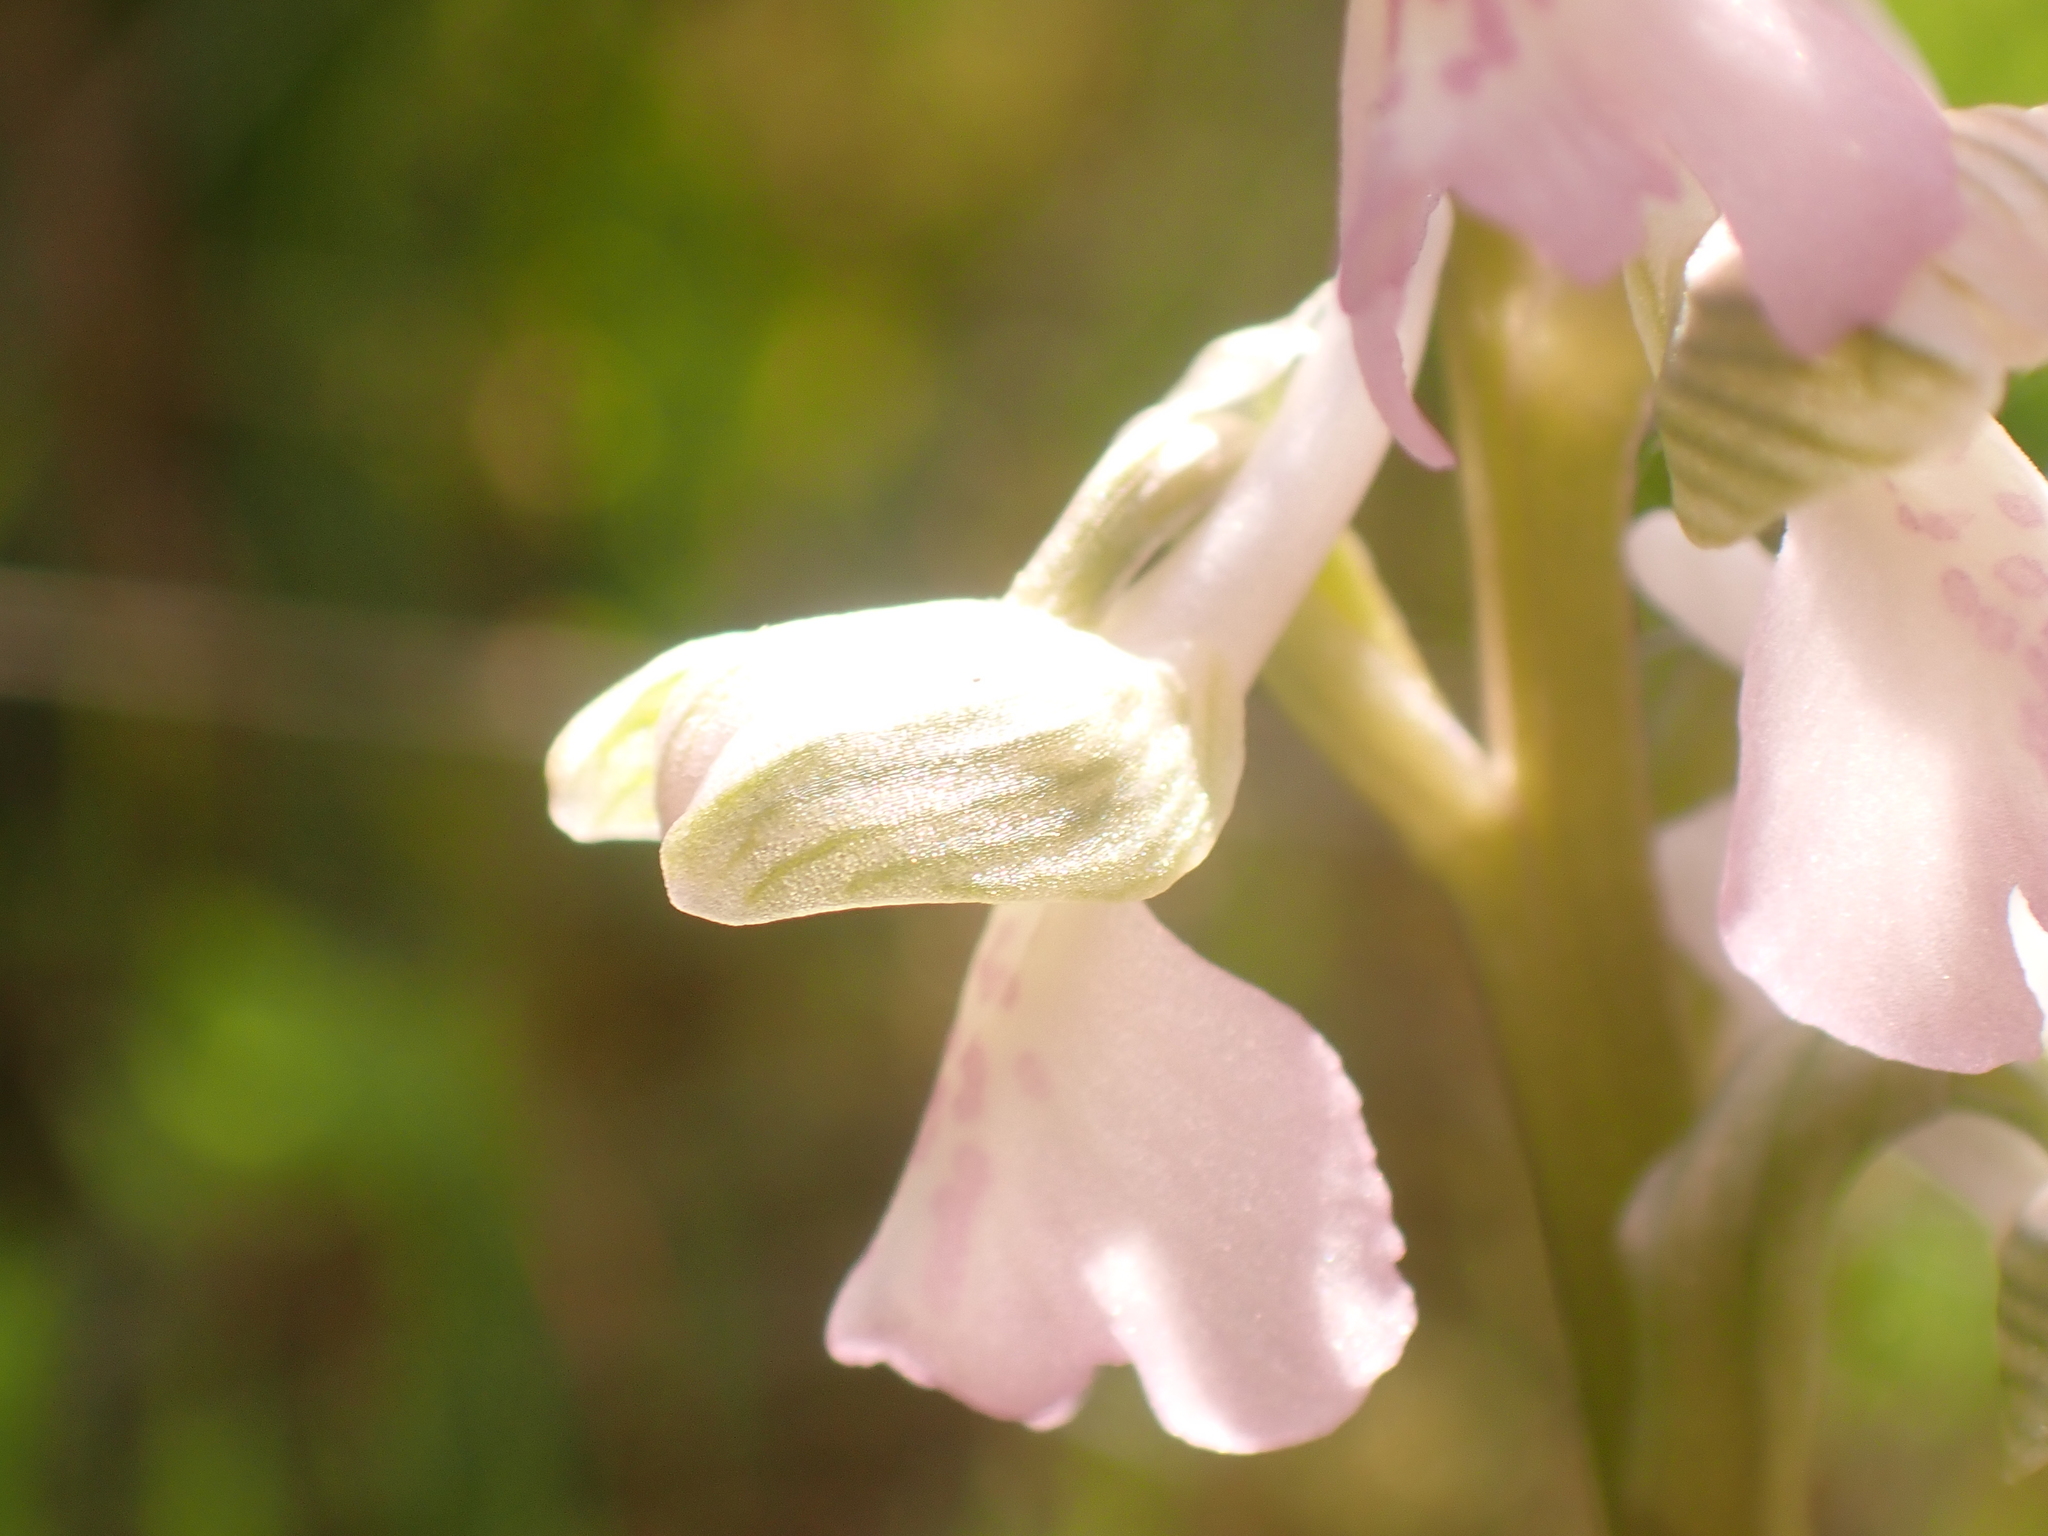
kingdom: Plantae
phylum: Tracheophyta
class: Liliopsida
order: Asparagales
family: Orchidaceae
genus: Anacamptis
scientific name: Anacamptis morio
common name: Green-winged orchid
